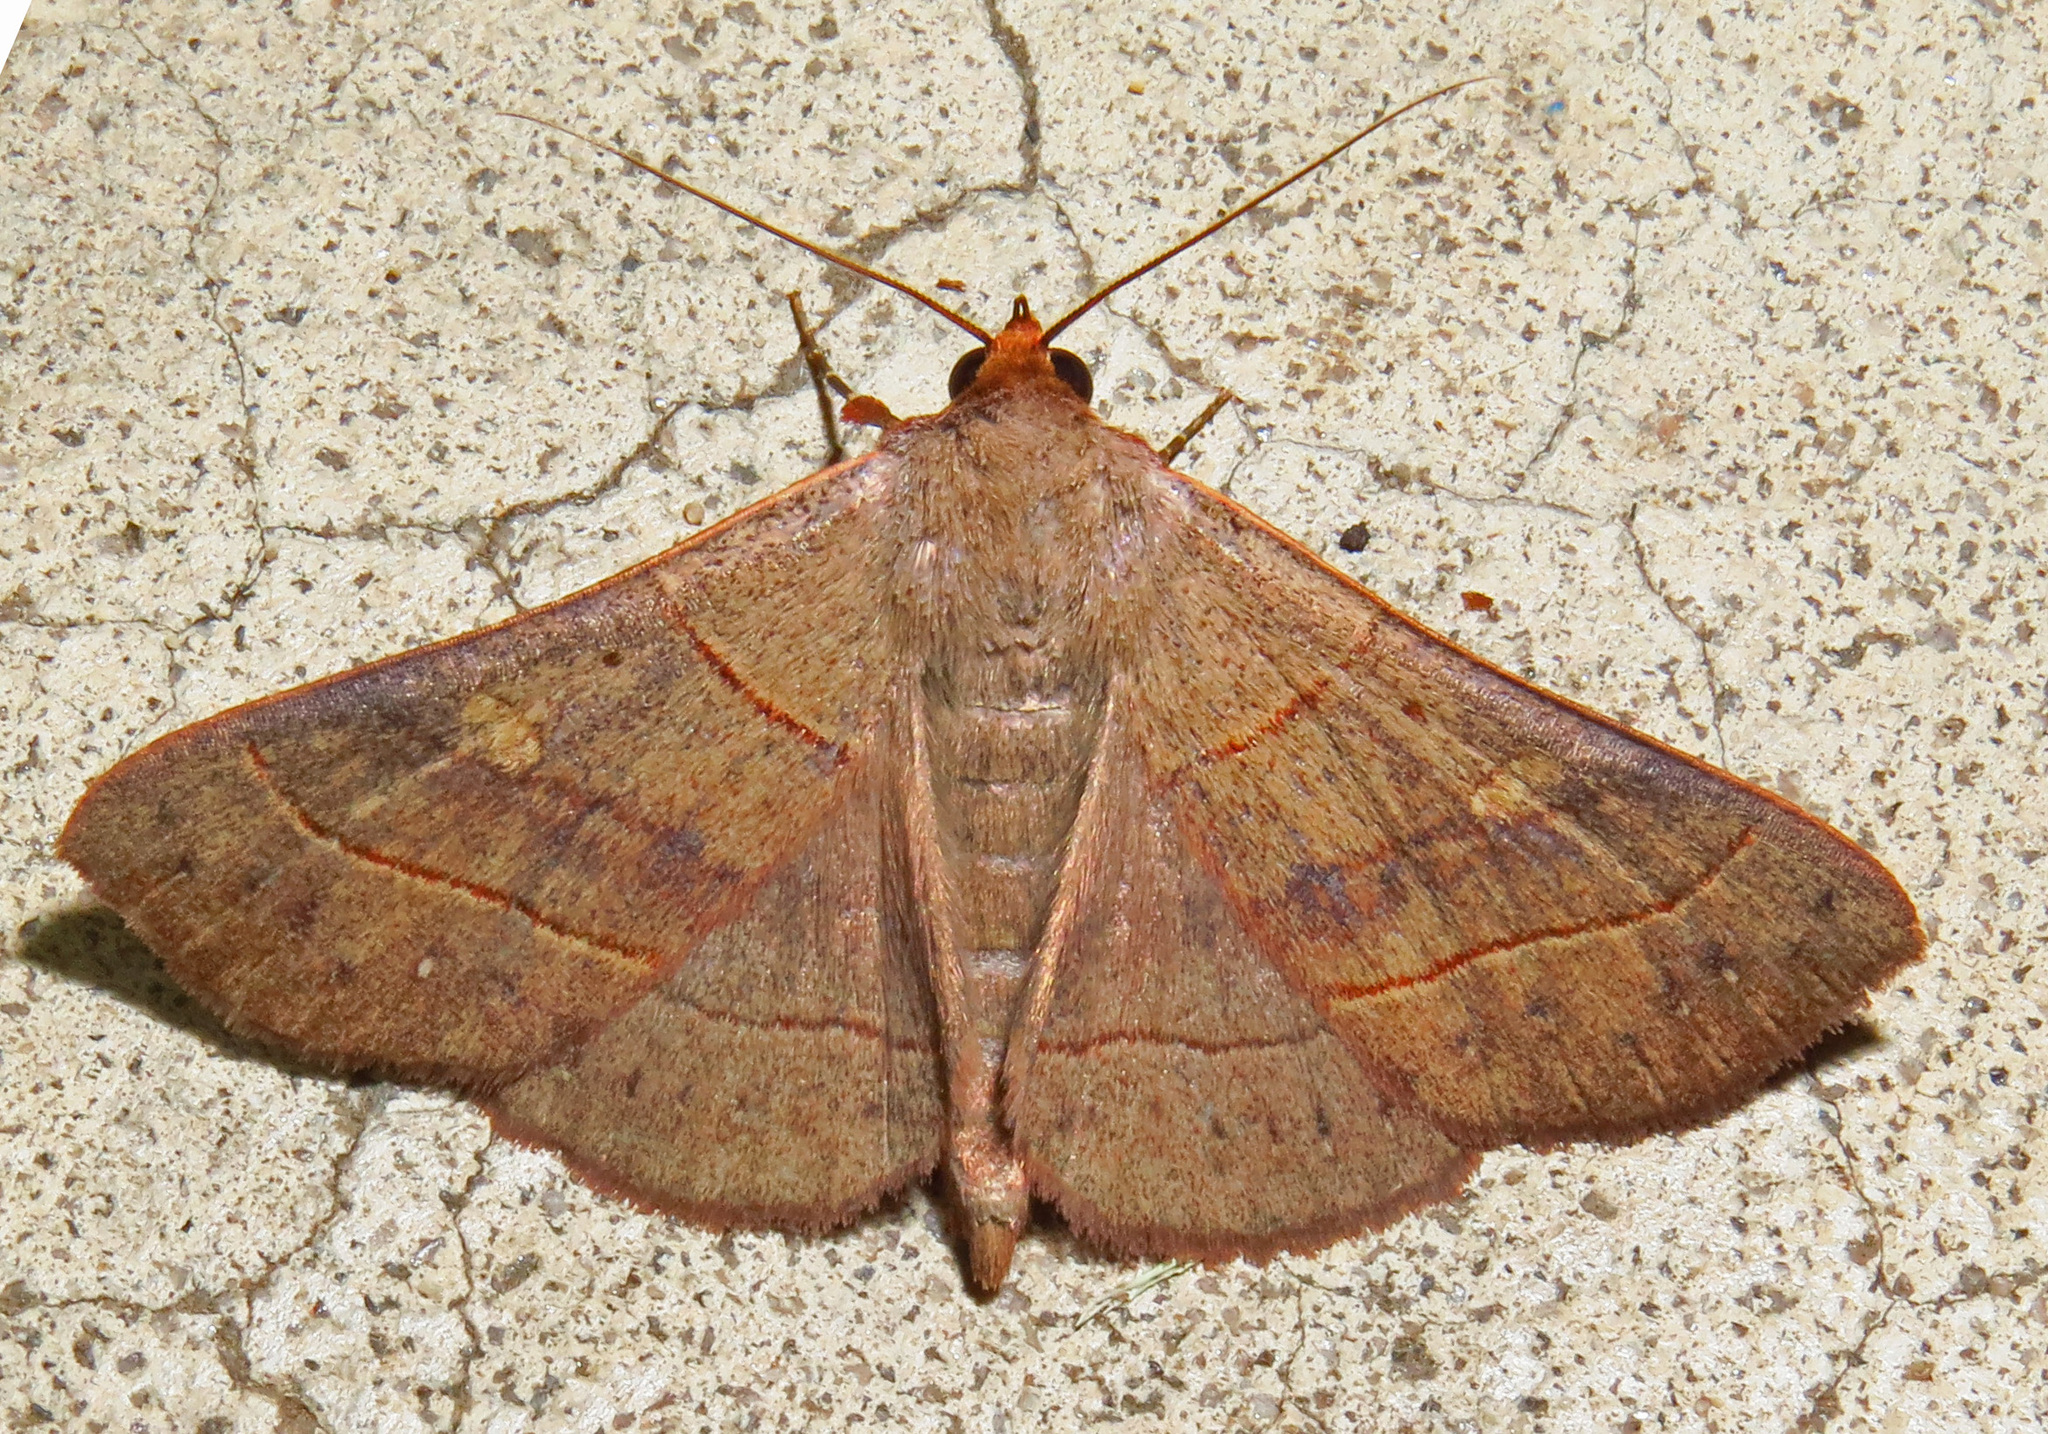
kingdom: Animalia
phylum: Arthropoda
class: Insecta
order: Lepidoptera
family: Erebidae
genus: Panopoda
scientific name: Panopoda rufimargo
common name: Red-lined panopoda moth
